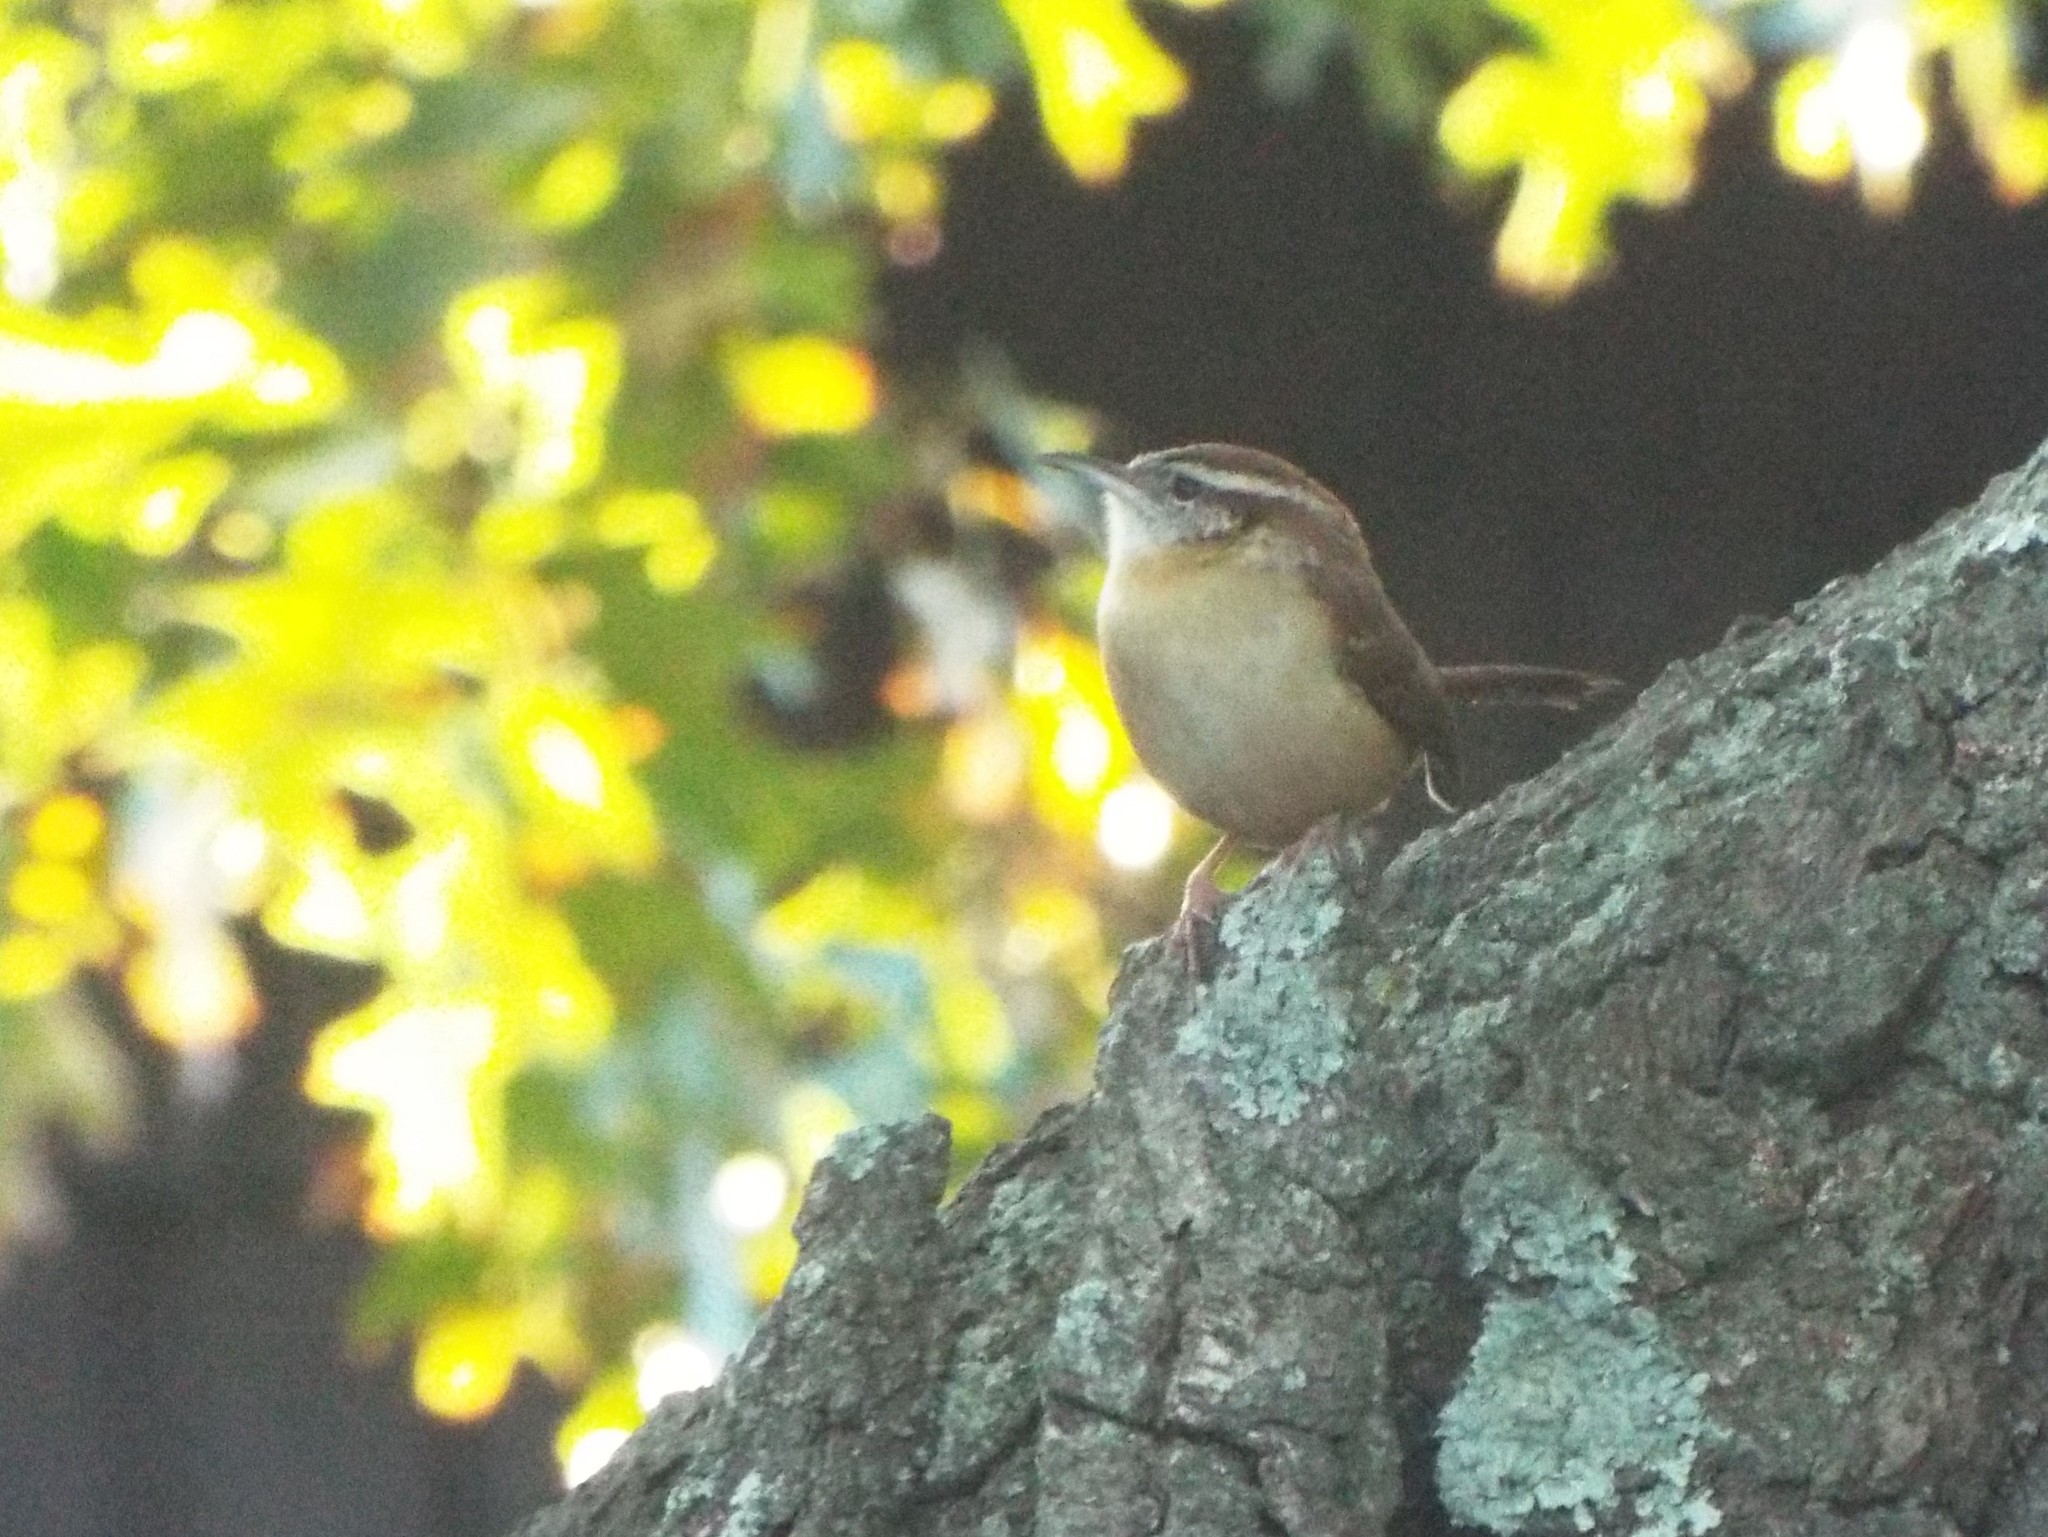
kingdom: Animalia
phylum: Chordata
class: Aves
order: Passeriformes
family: Troglodytidae
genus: Thryothorus
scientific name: Thryothorus ludovicianus
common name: Carolina wren
